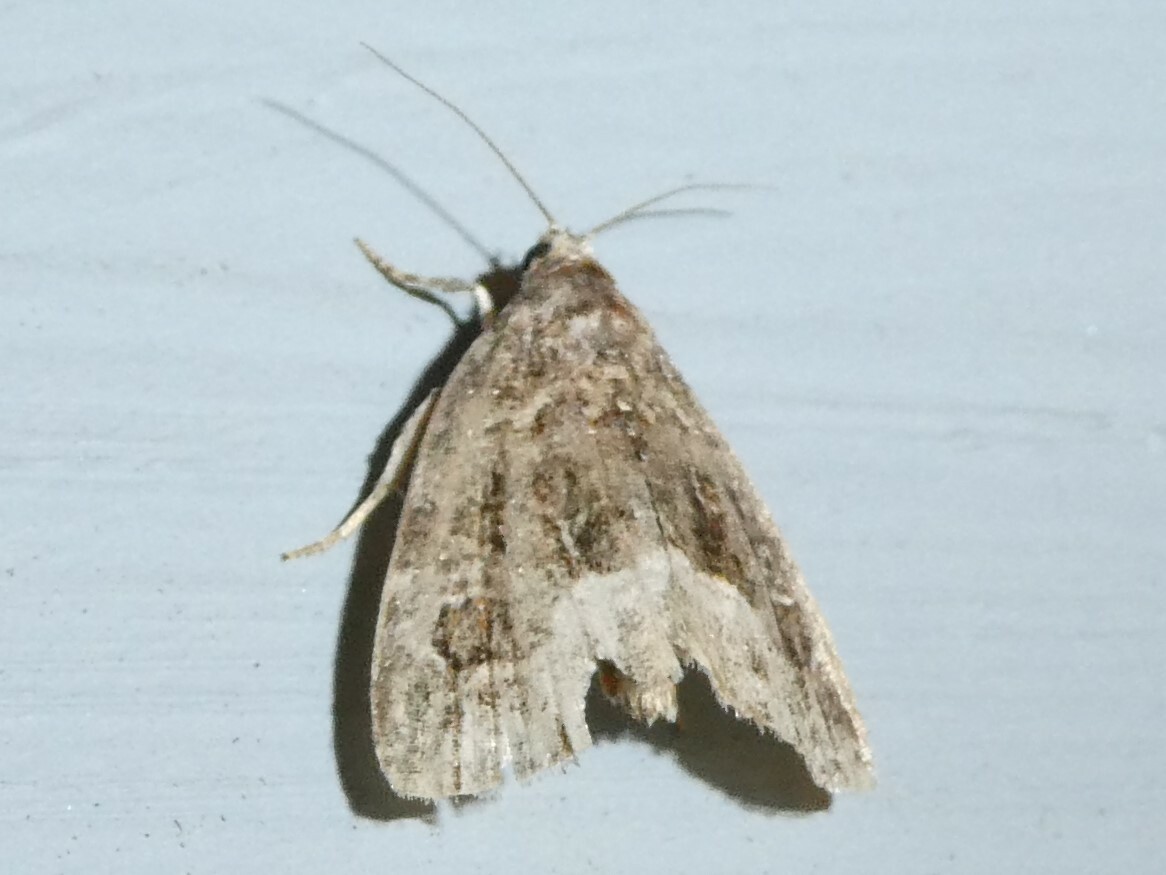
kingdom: Animalia
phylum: Arthropoda
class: Insecta
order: Lepidoptera
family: Noctuidae
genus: Protodeltote
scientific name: Protodeltote muscosula
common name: Large mossy glyph
